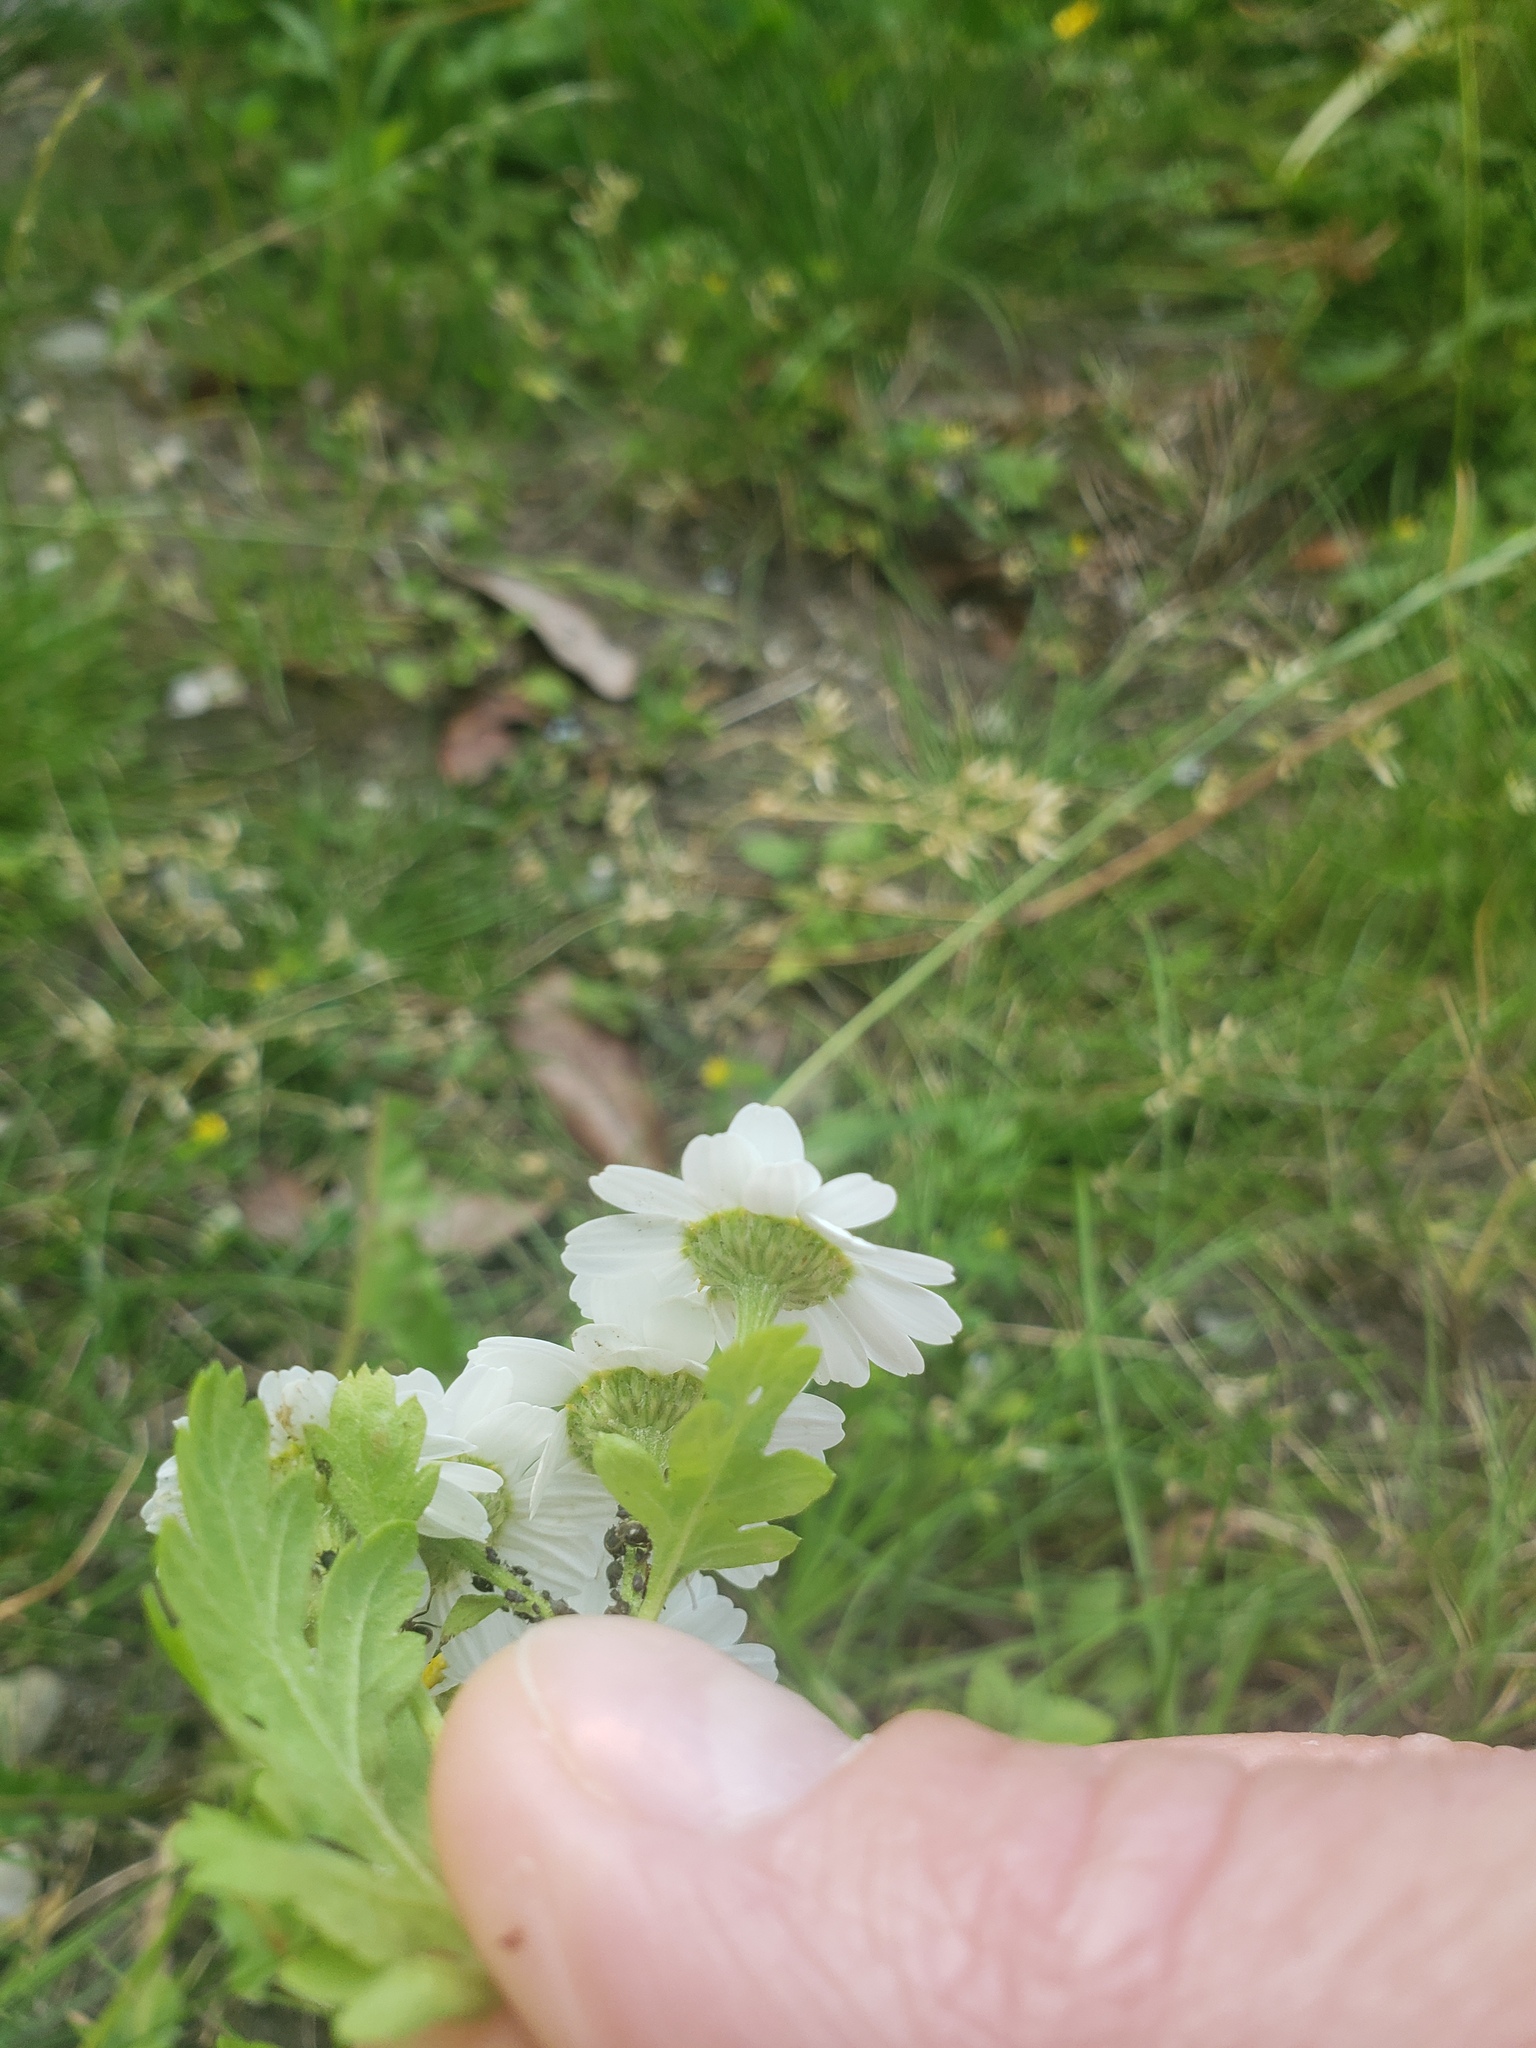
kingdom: Plantae
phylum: Tracheophyta
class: Magnoliopsida
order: Asterales
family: Asteraceae
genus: Tanacetum
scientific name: Tanacetum parthenium
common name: Feverfew
